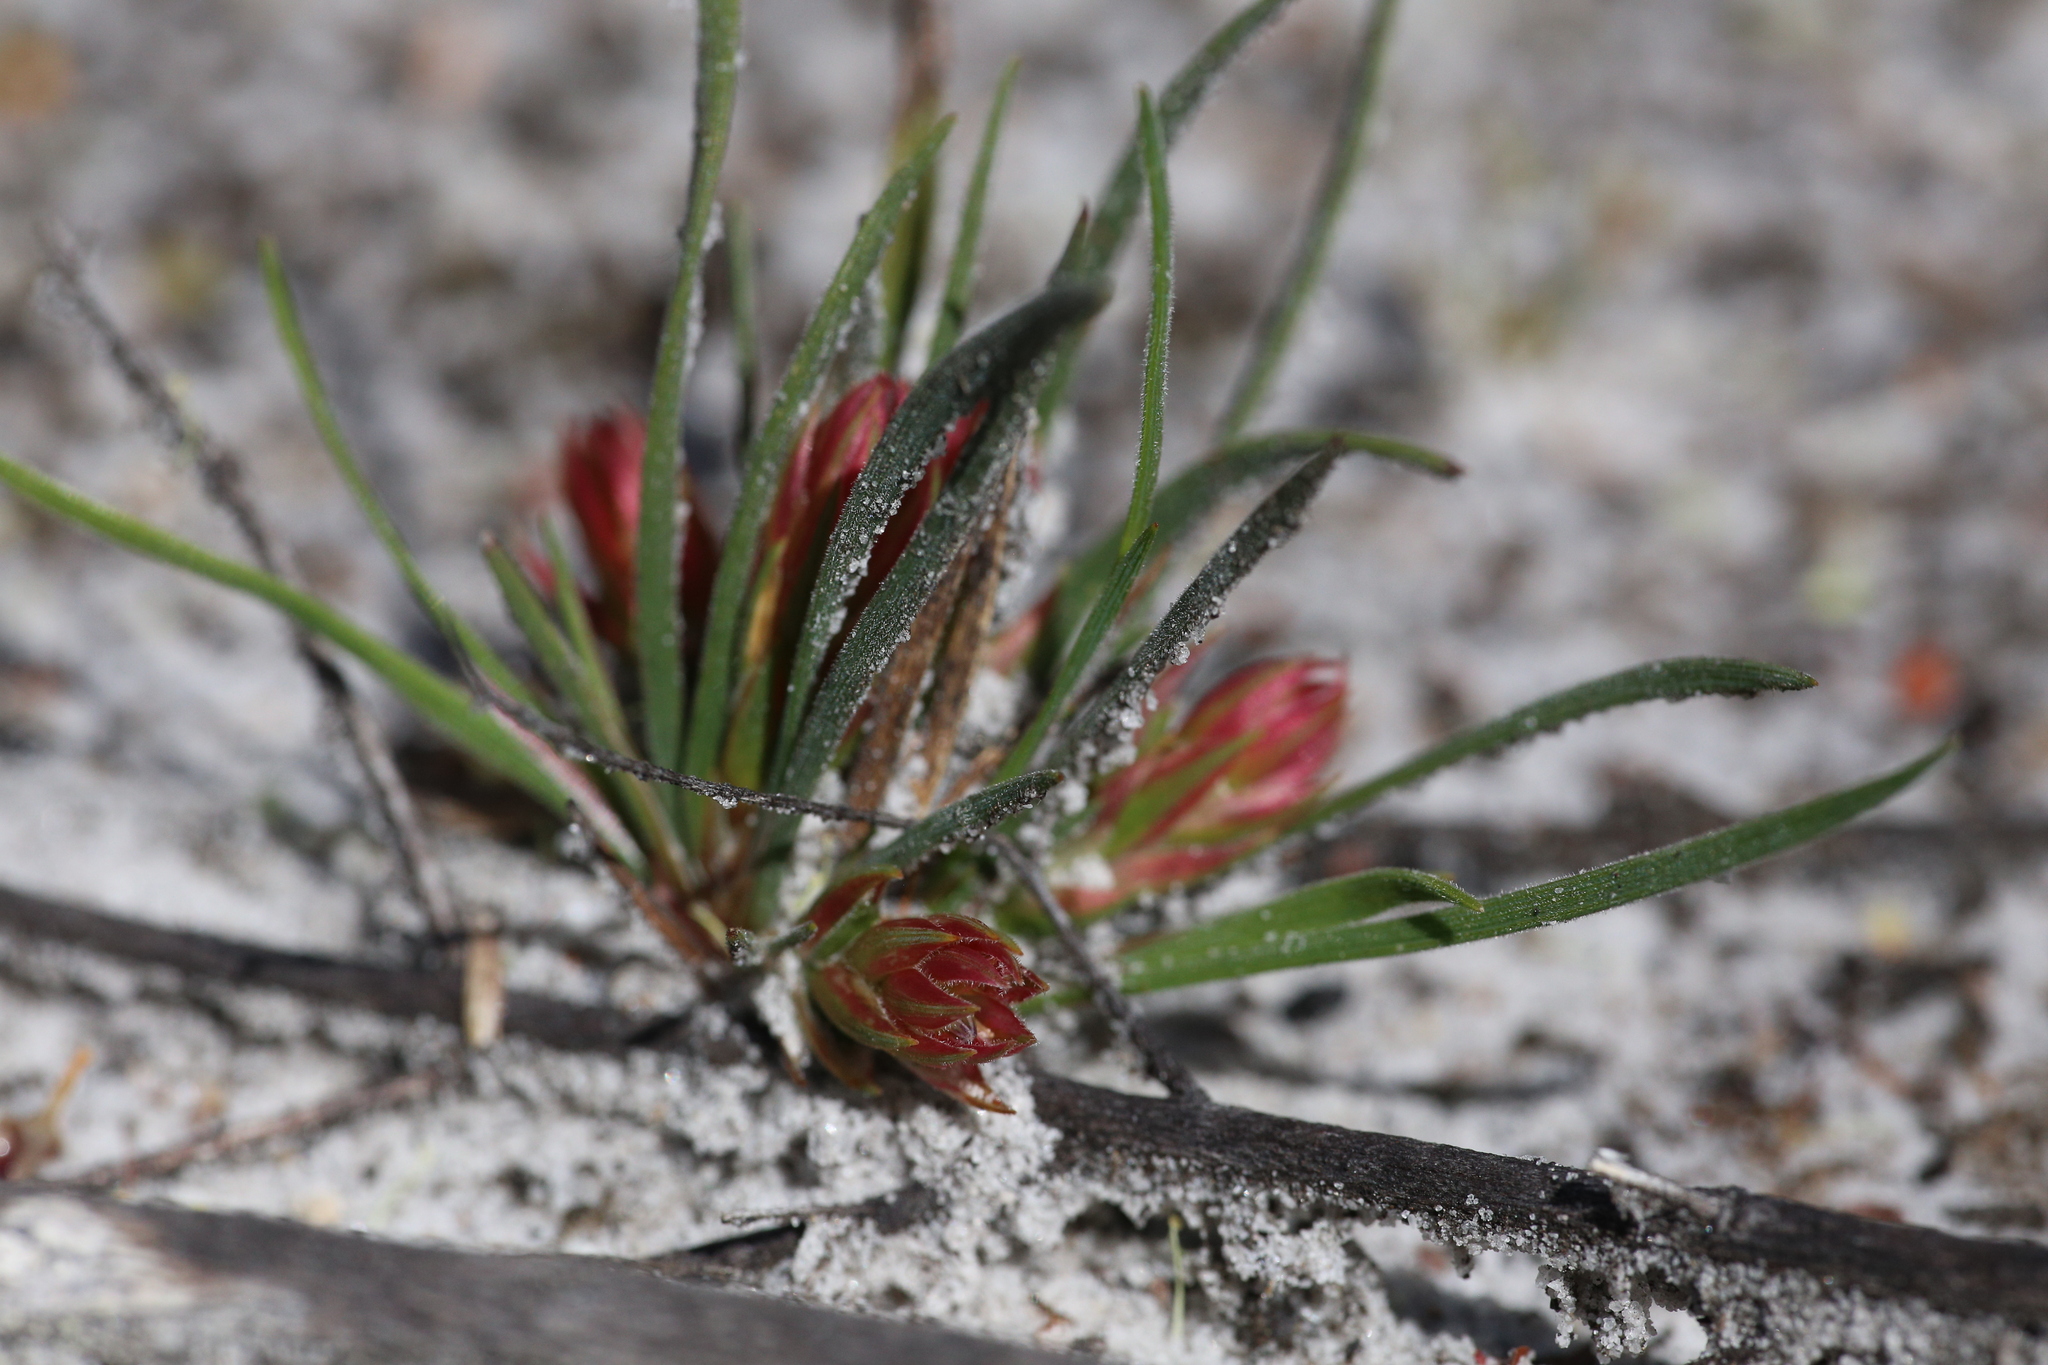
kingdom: Plantae
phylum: Tracheophyta
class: Liliopsida
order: Asparagales
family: Asphodelaceae
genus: Johnsonia
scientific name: Johnsonia acaulis
